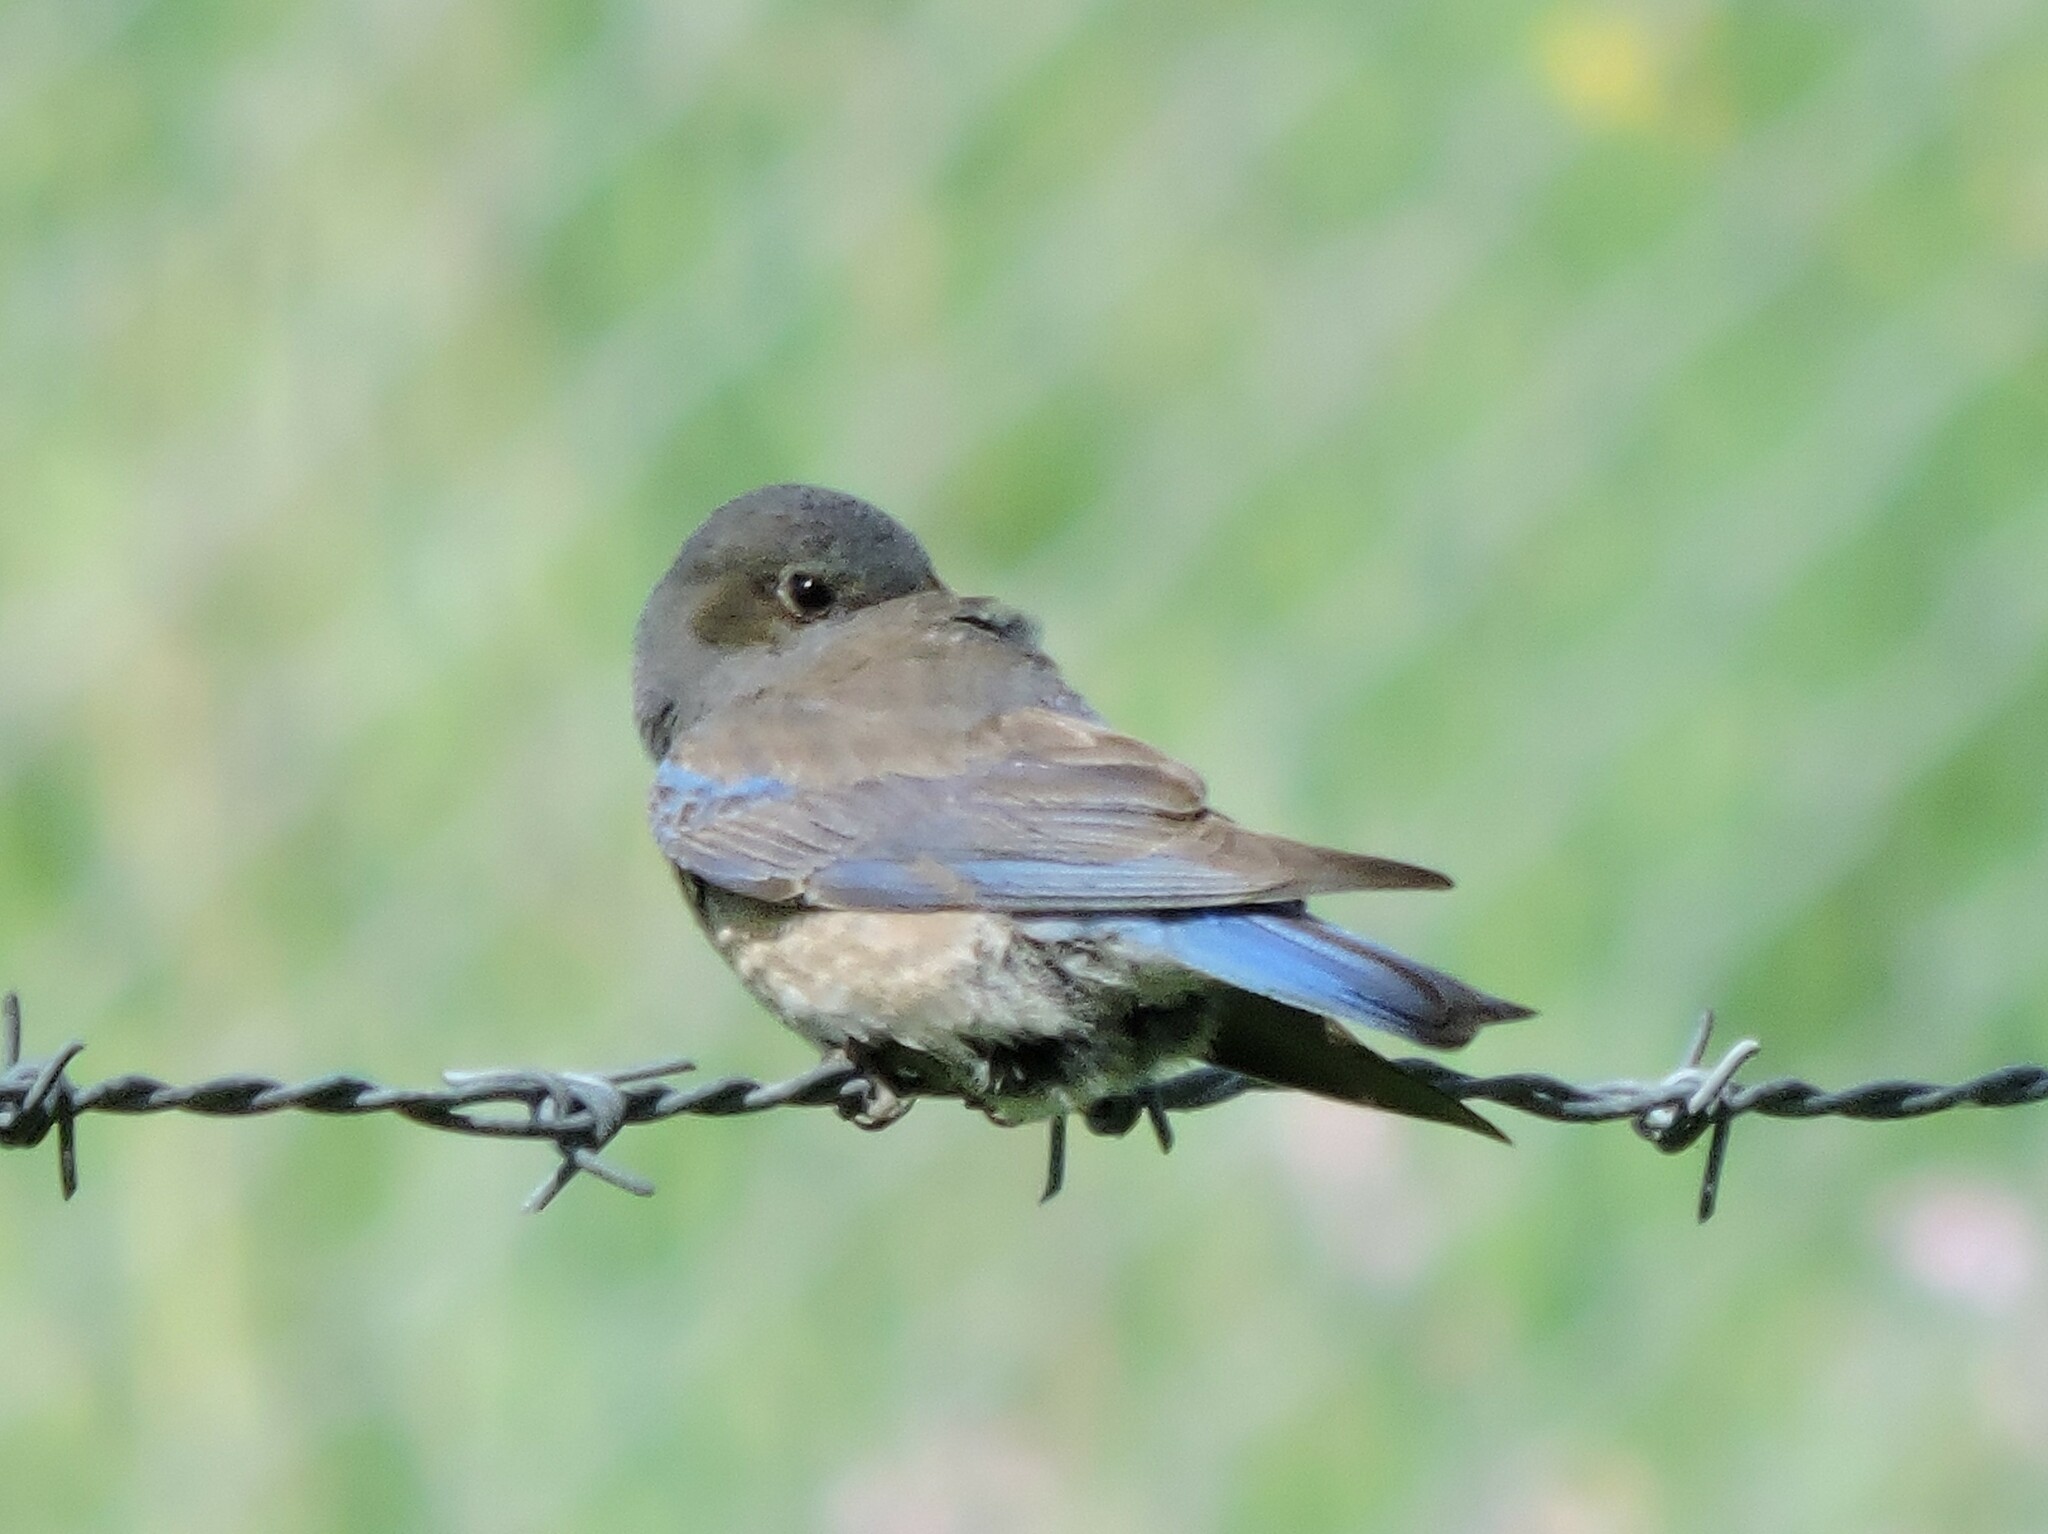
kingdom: Animalia
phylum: Chordata
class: Aves
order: Passeriformes
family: Turdidae
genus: Sialia
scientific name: Sialia mexicana
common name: Western bluebird
